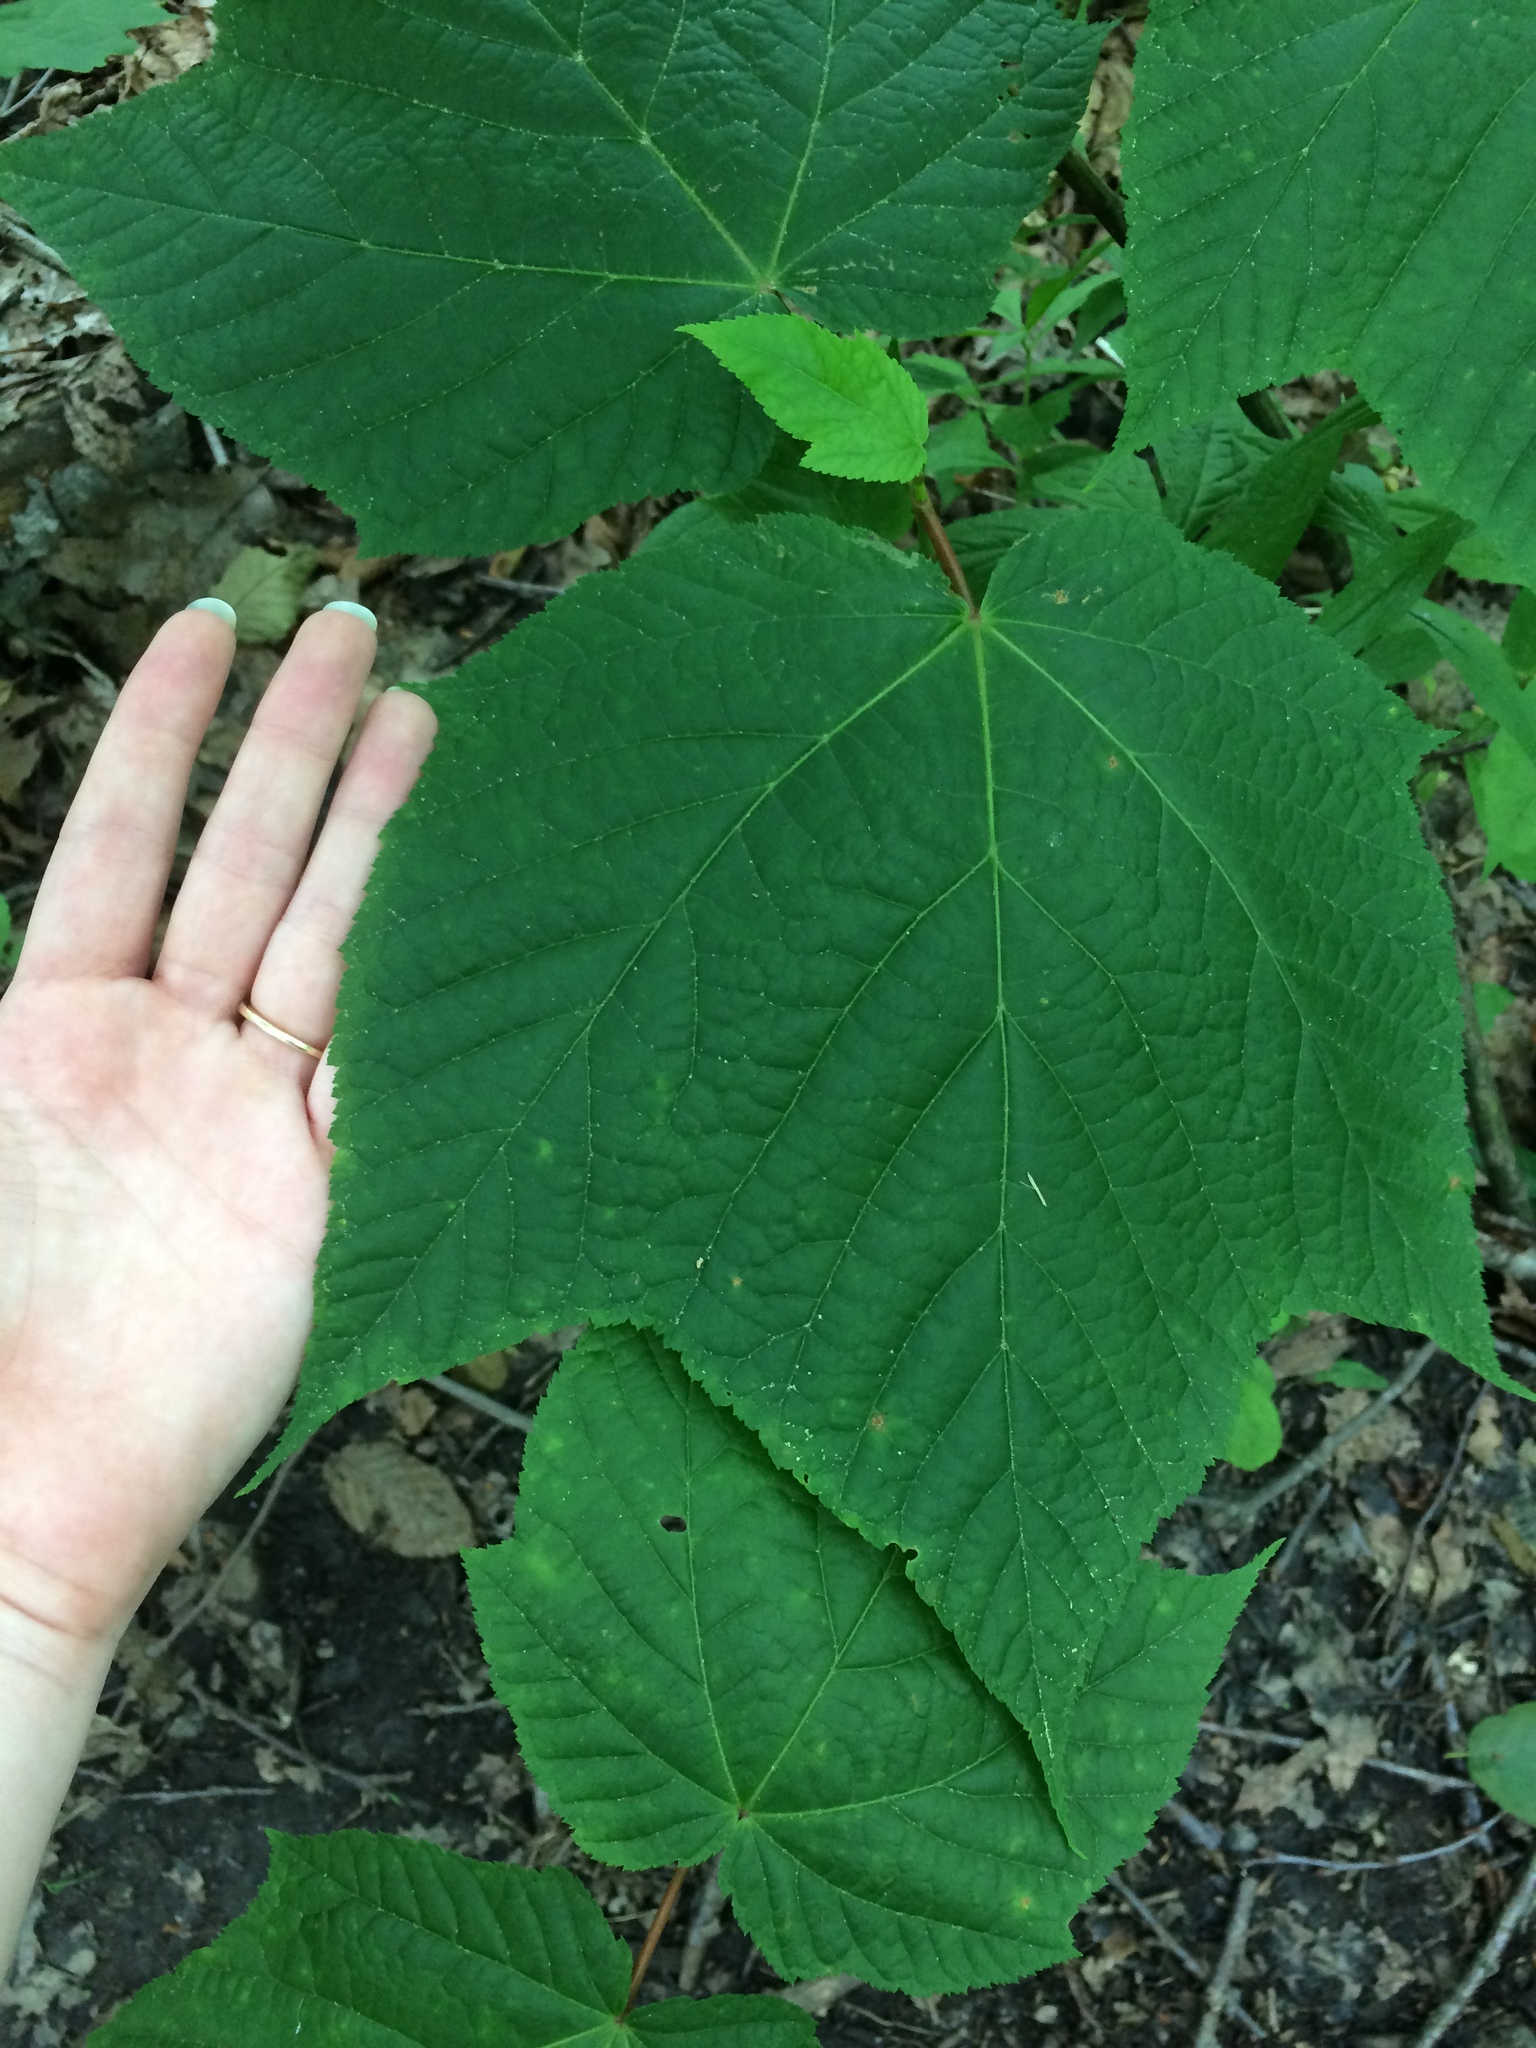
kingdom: Plantae
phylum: Tracheophyta
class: Magnoliopsida
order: Sapindales
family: Sapindaceae
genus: Acer
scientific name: Acer pensylvanicum
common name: Moosewood
